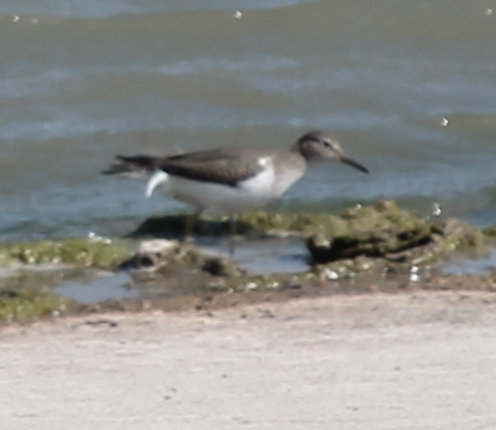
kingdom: Animalia
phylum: Chordata
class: Aves
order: Charadriiformes
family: Scolopacidae
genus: Actitis
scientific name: Actitis macularius
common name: Spotted sandpiper
